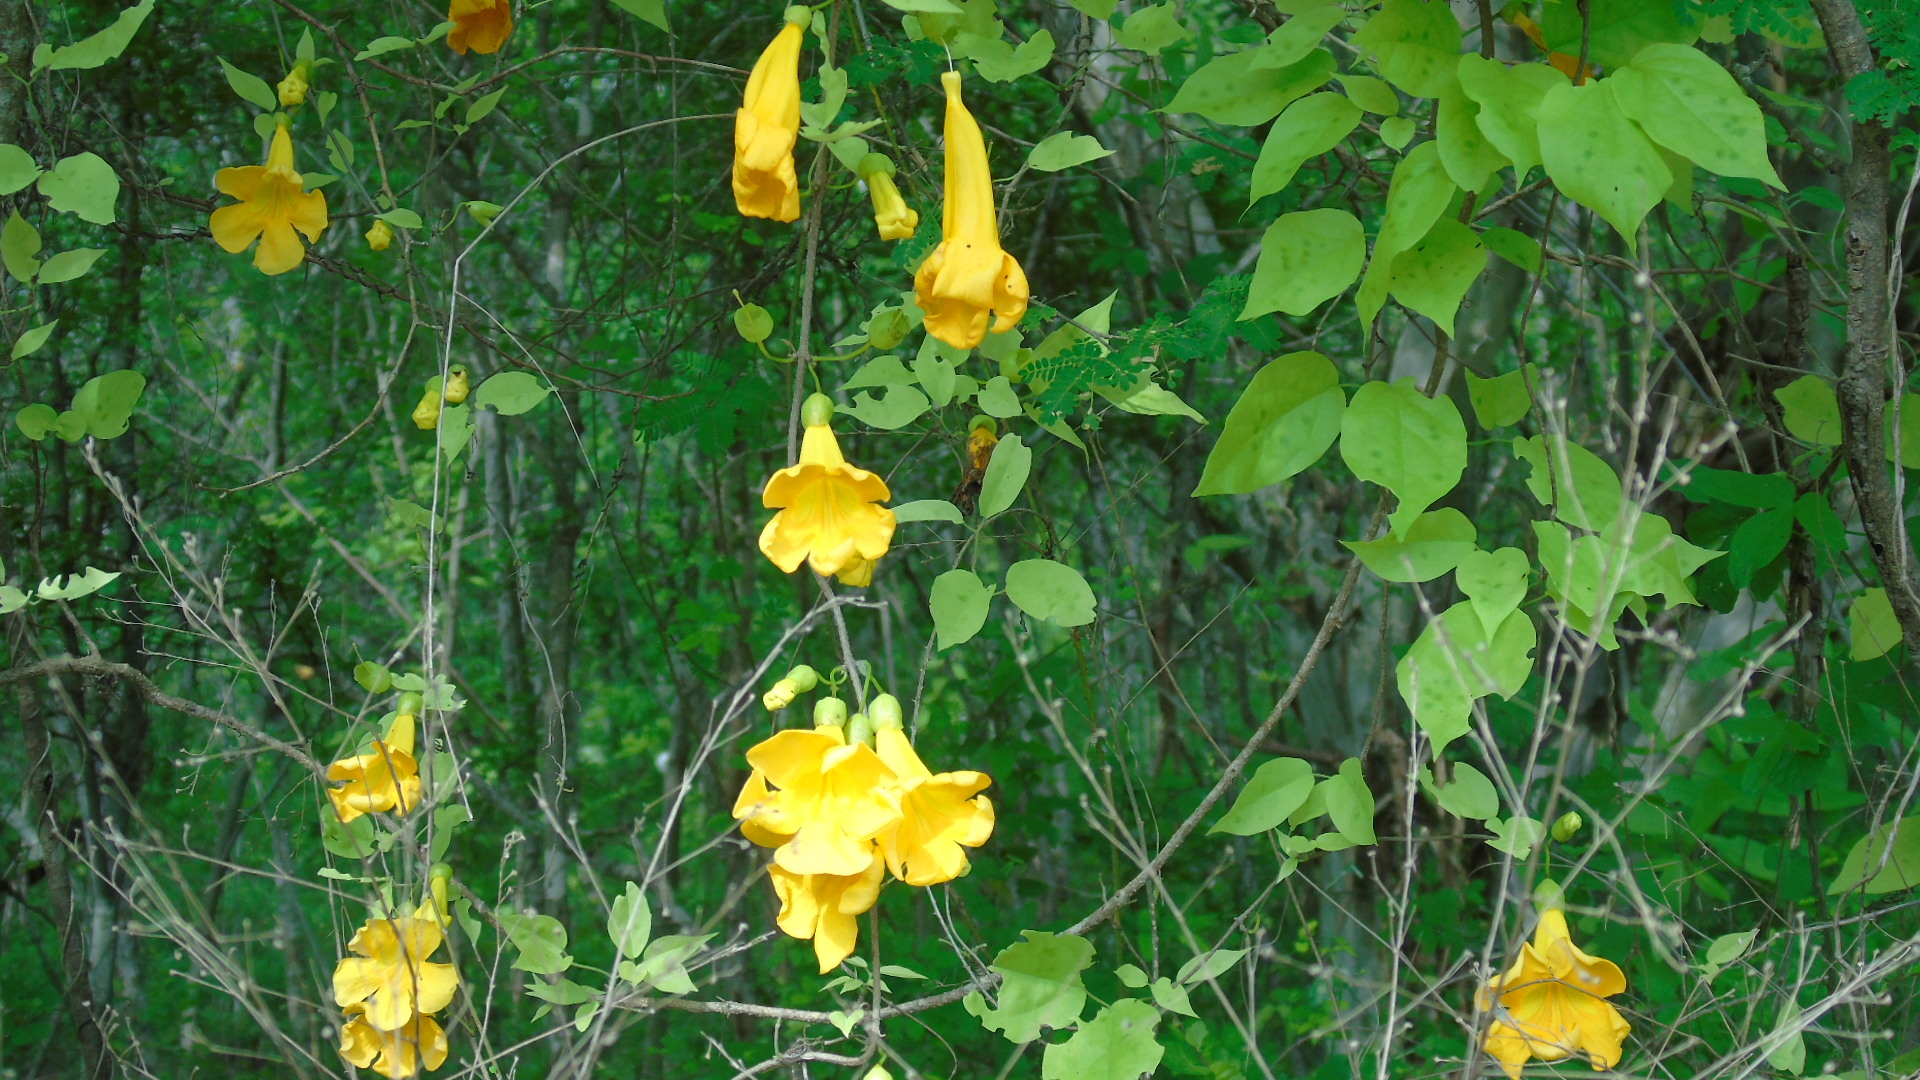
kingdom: Plantae
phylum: Tracheophyta
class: Magnoliopsida
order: Lamiales
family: Bignoniaceae
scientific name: Bignoniaceae
